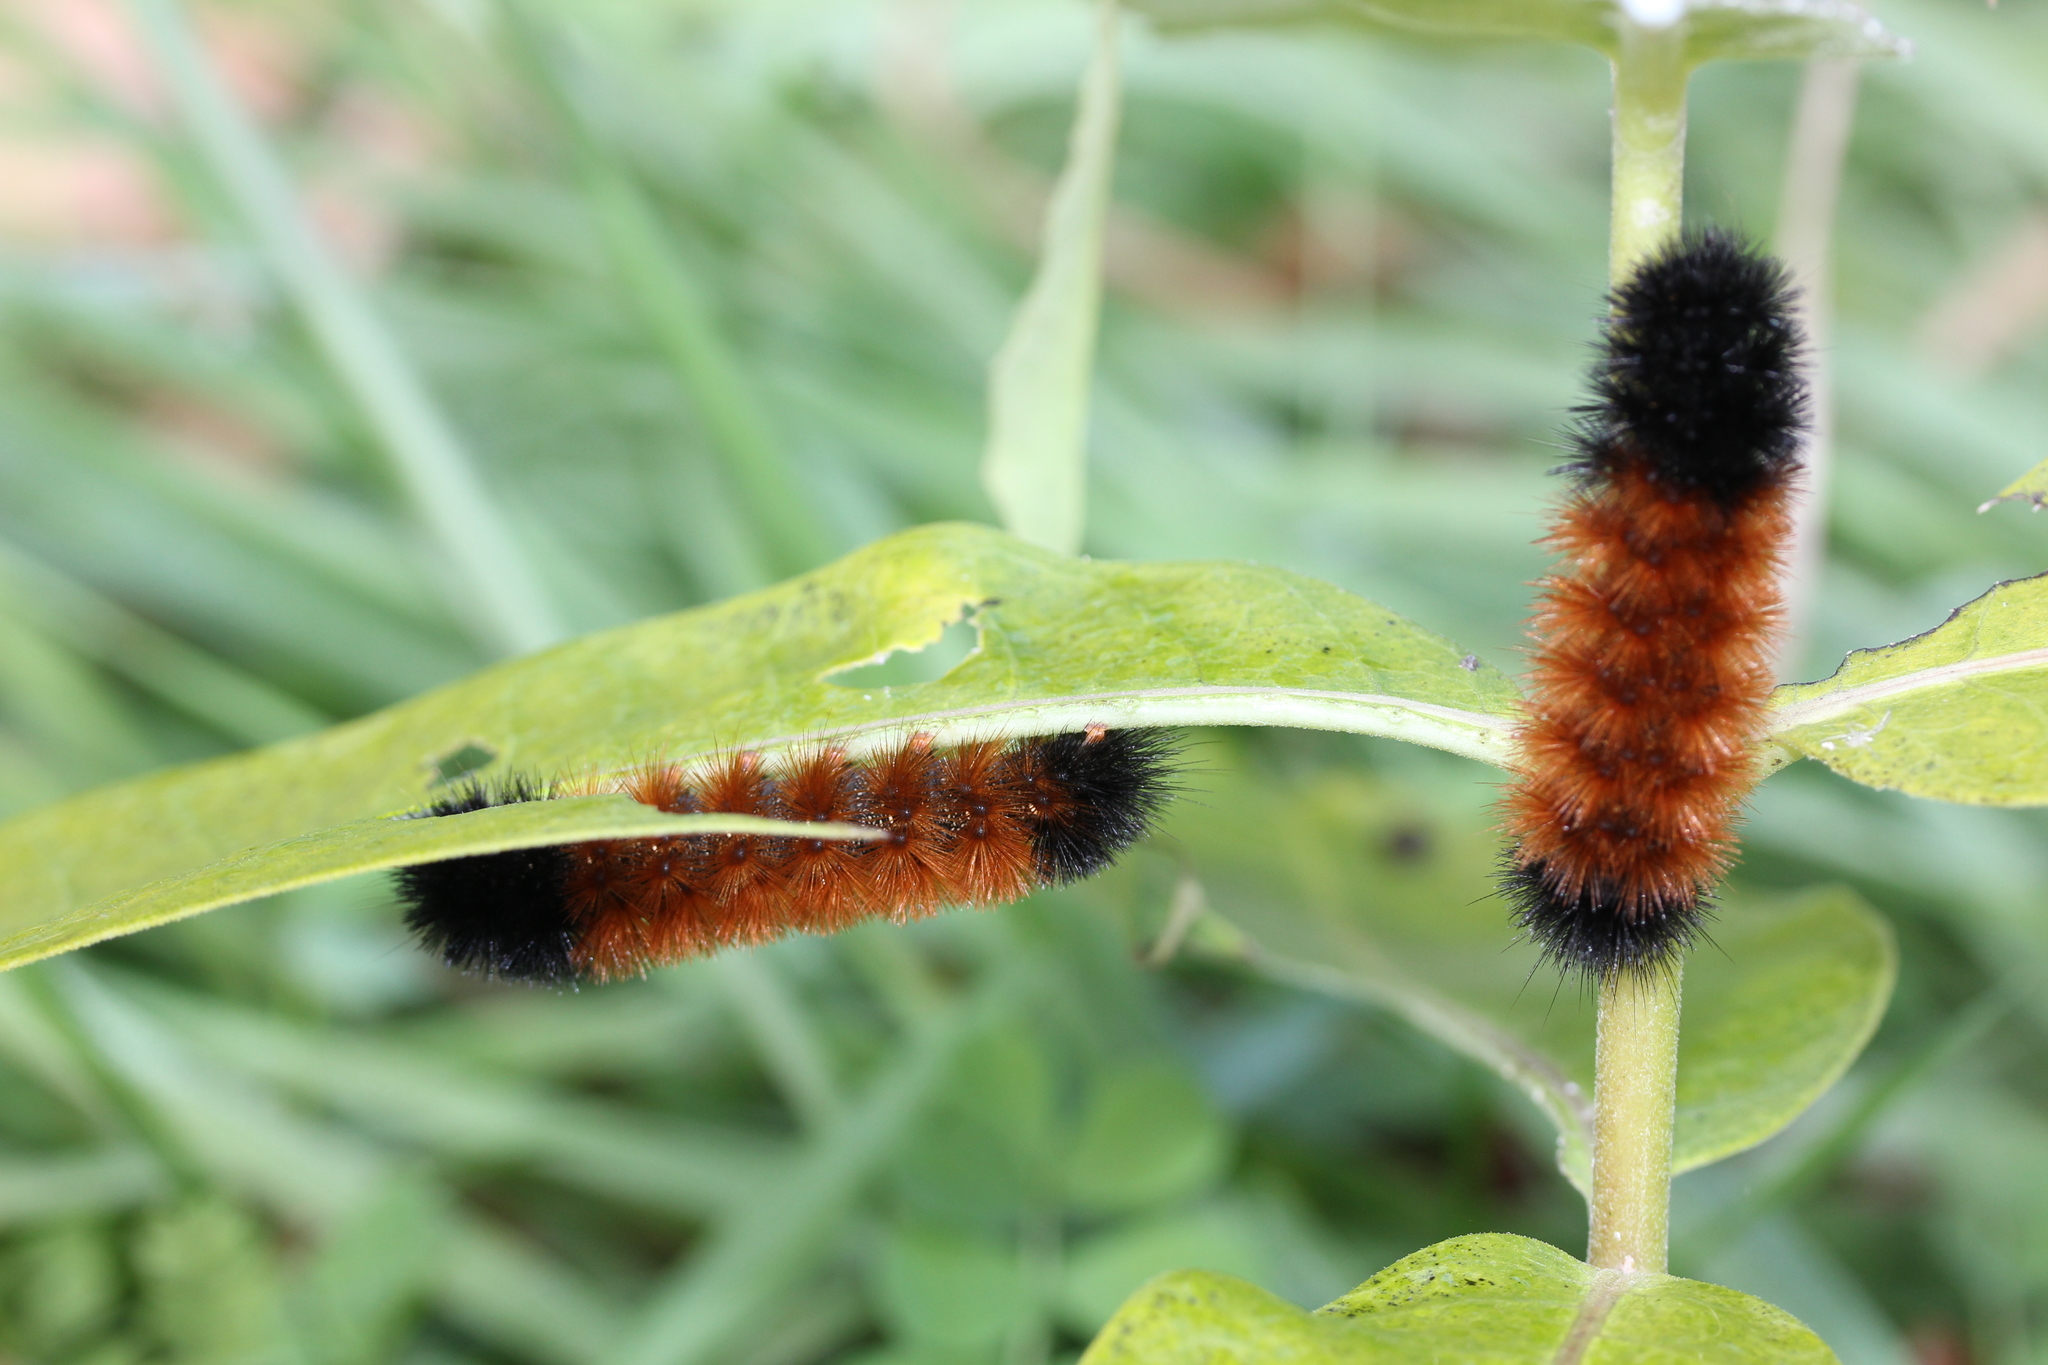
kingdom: Animalia
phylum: Arthropoda
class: Insecta
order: Lepidoptera
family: Erebidae
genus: Pyrrharctia
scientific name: Pyrrharctia isabella
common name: Isabella tiger moth
